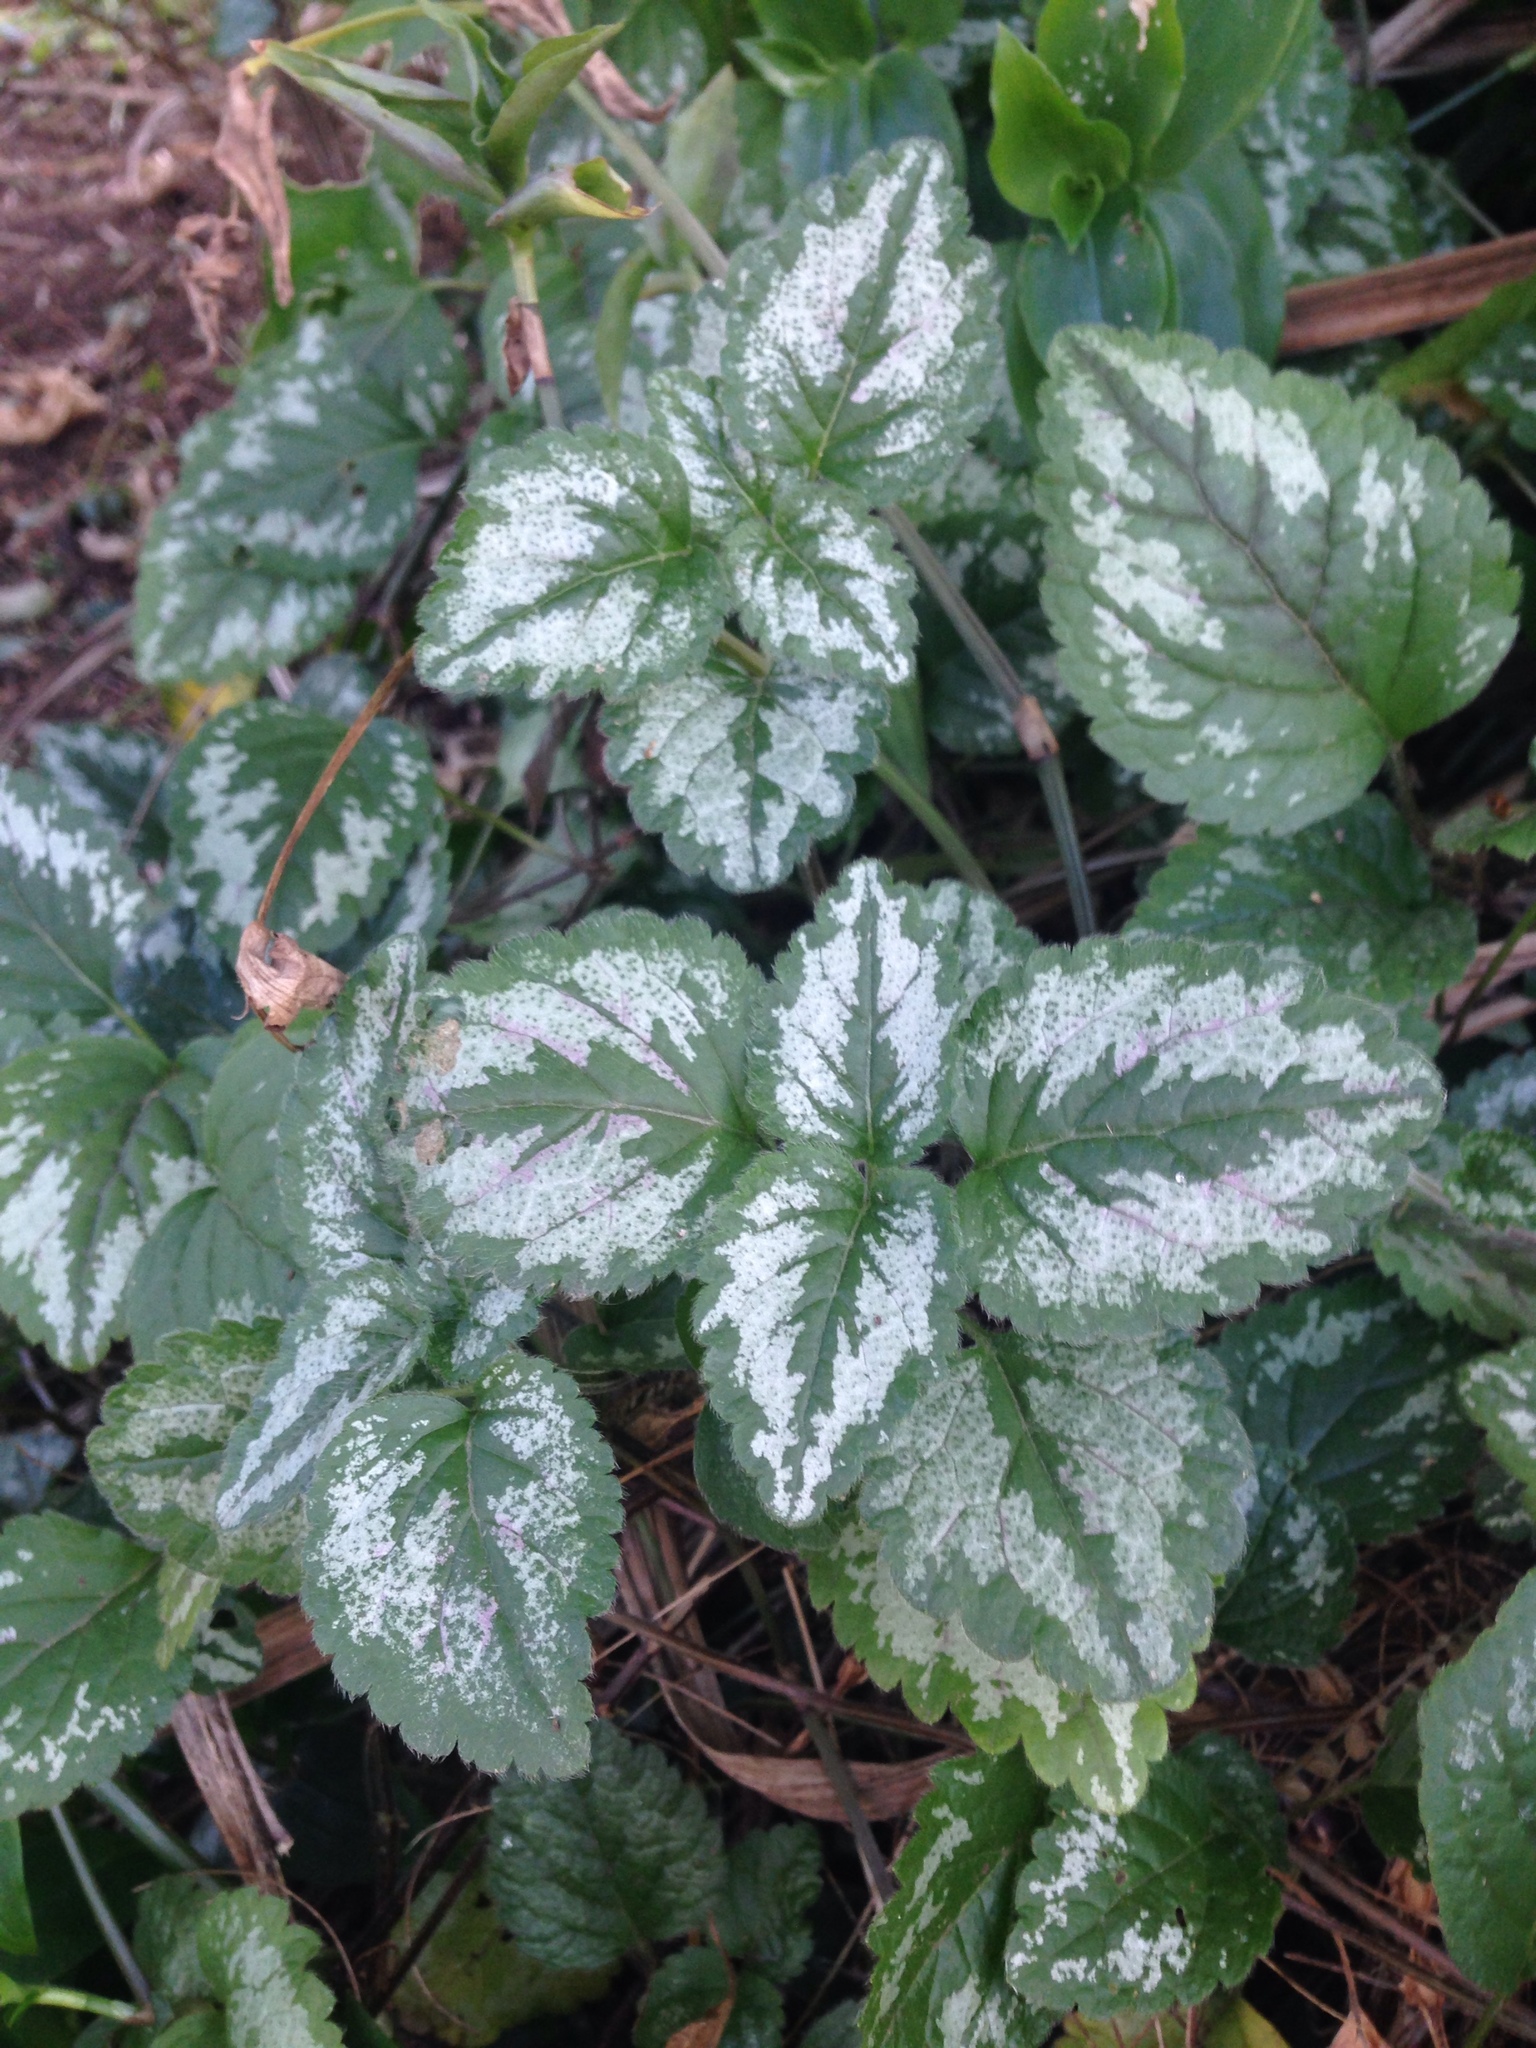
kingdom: Plantae
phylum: Tracheophyta
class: Magnoliopsida
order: Lamiales
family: Lamiaceae
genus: Lamium
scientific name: Lamium galeobdolon
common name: Yellow archangel
